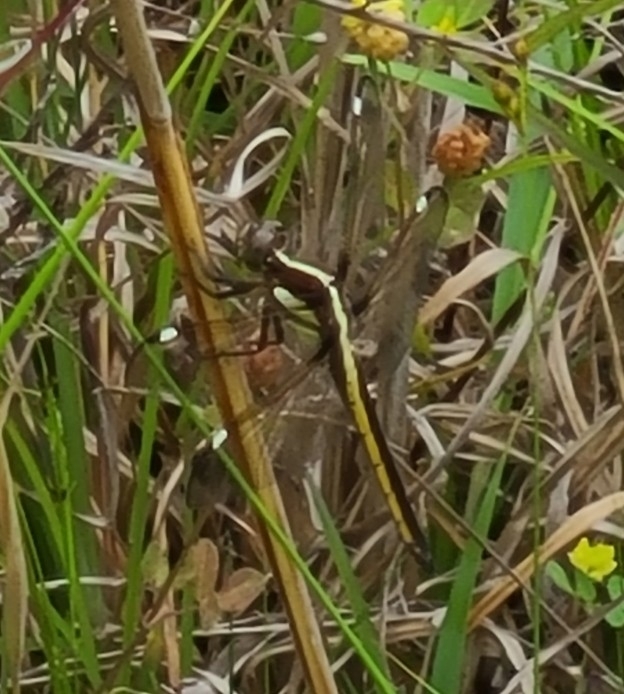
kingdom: Animalia
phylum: Arthropoda
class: Insecta
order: Odonata
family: Libellulidae
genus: Libellula
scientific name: Libellula cyanea
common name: Spangled skimmer
